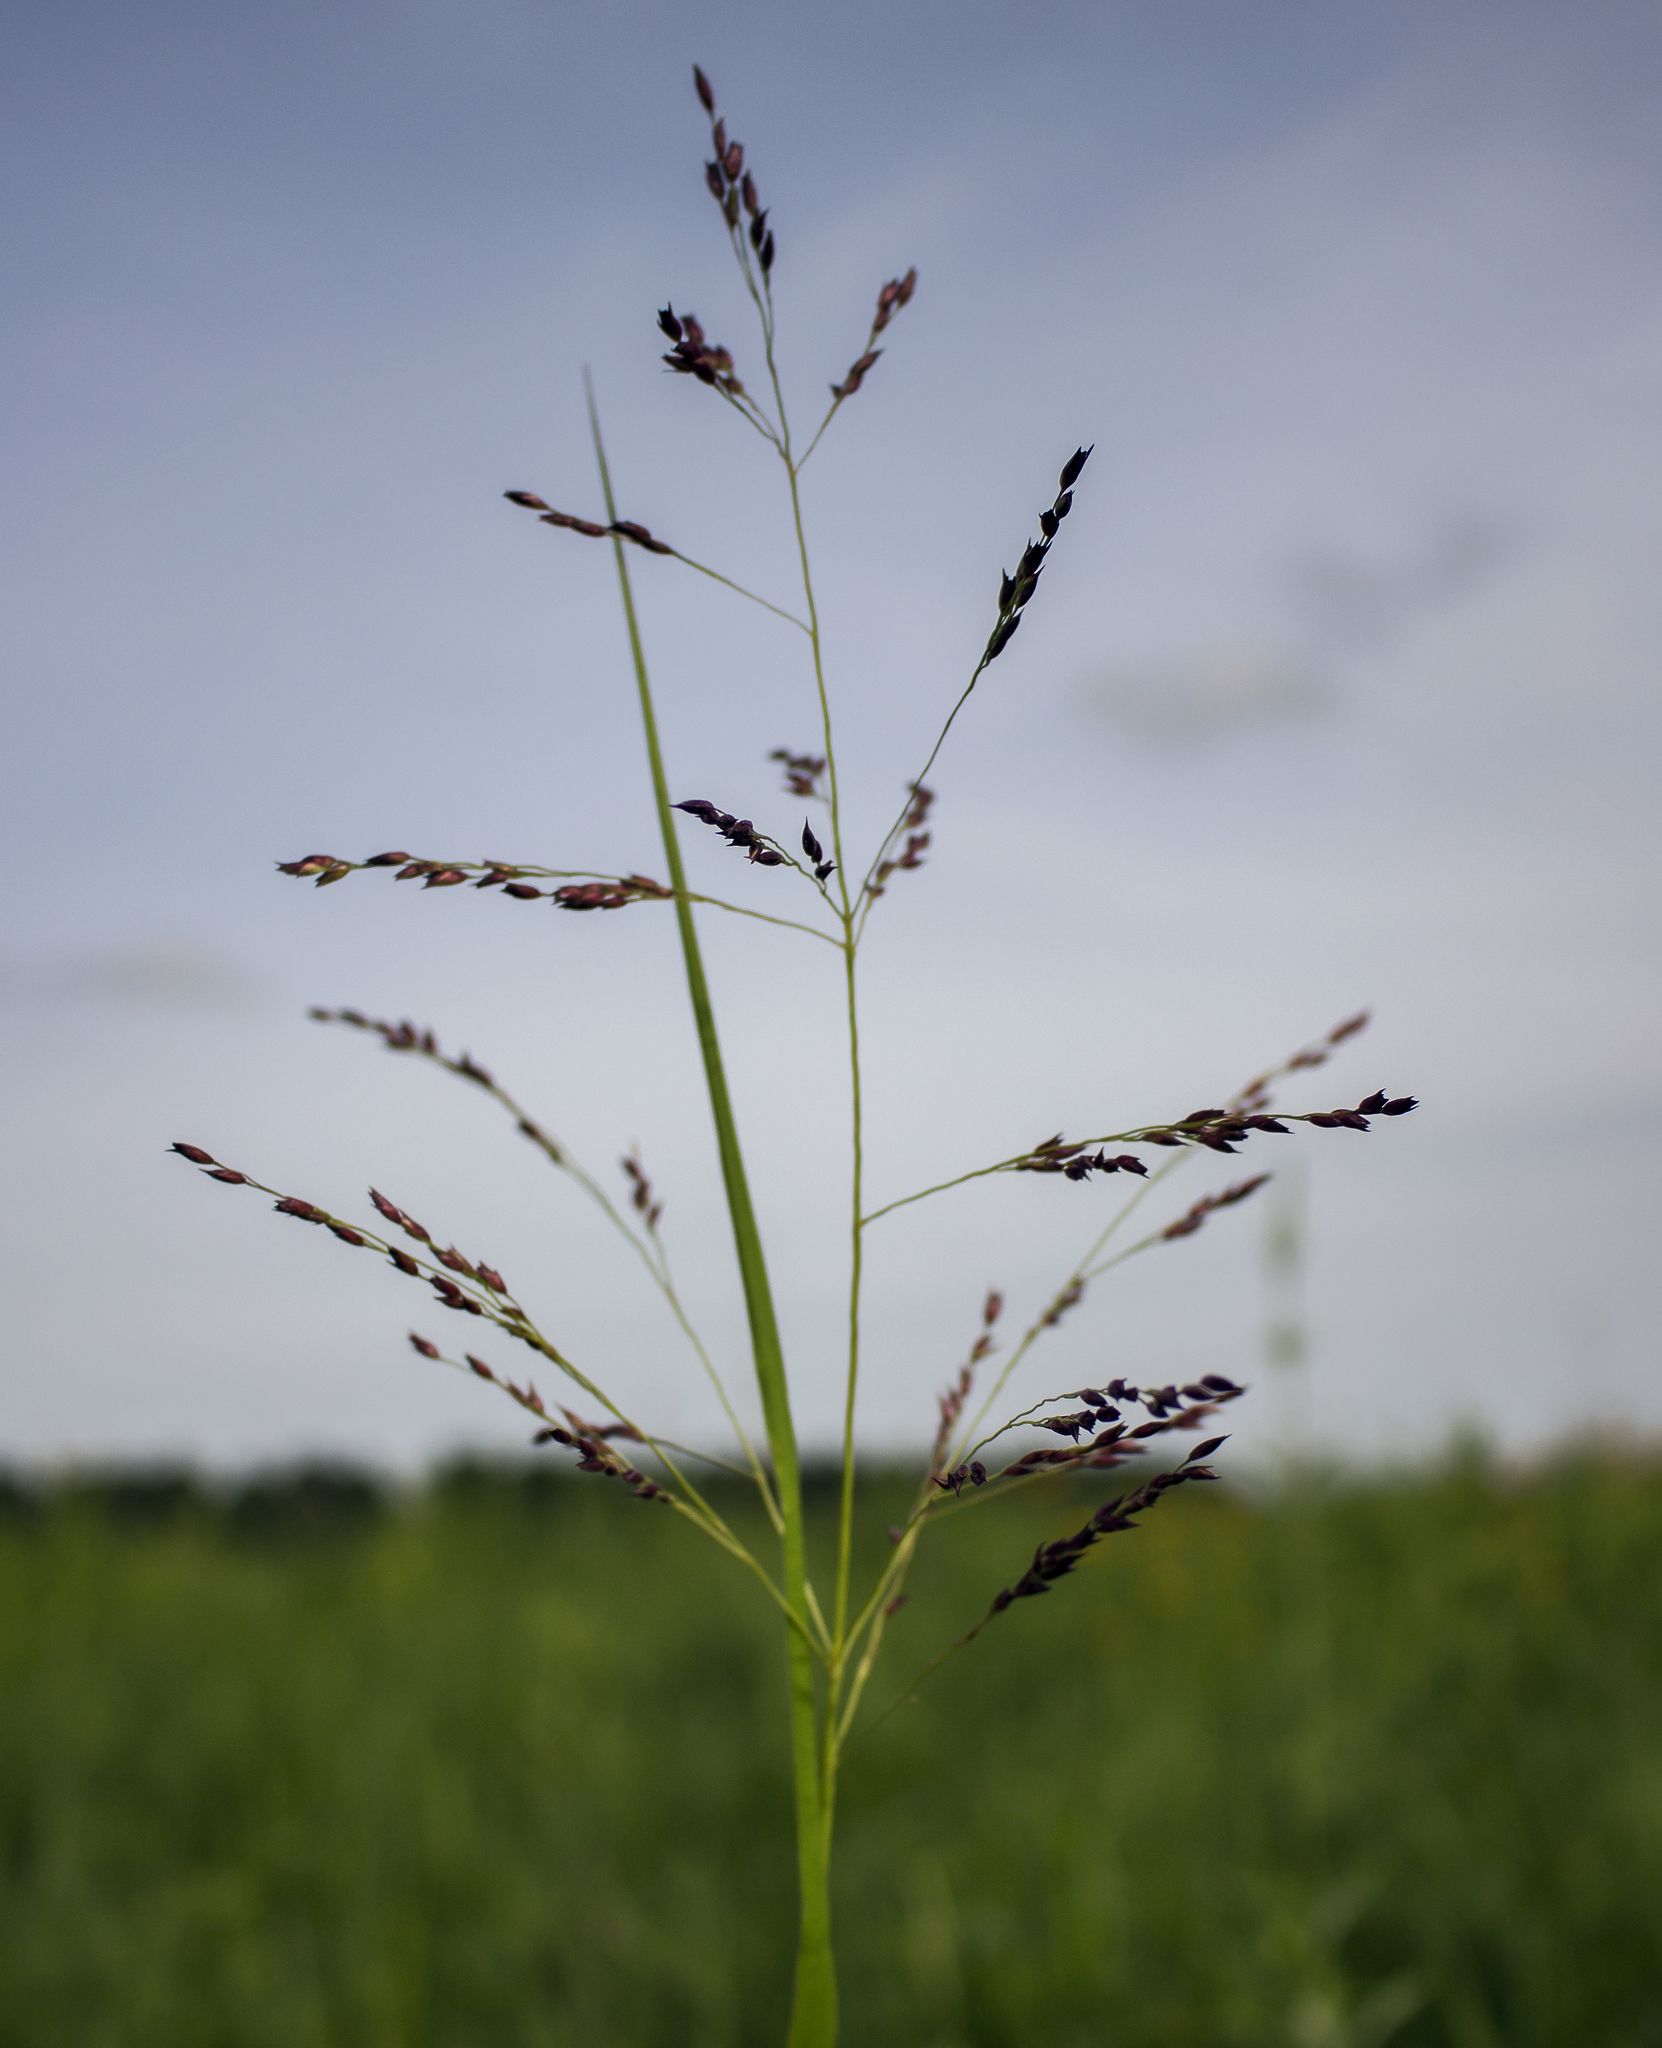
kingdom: Plantae
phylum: Tracheophyta
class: Liliopsida
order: Poales
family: Poaceae
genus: Panicum
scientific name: Panicum virgatum
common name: Switchgrass
